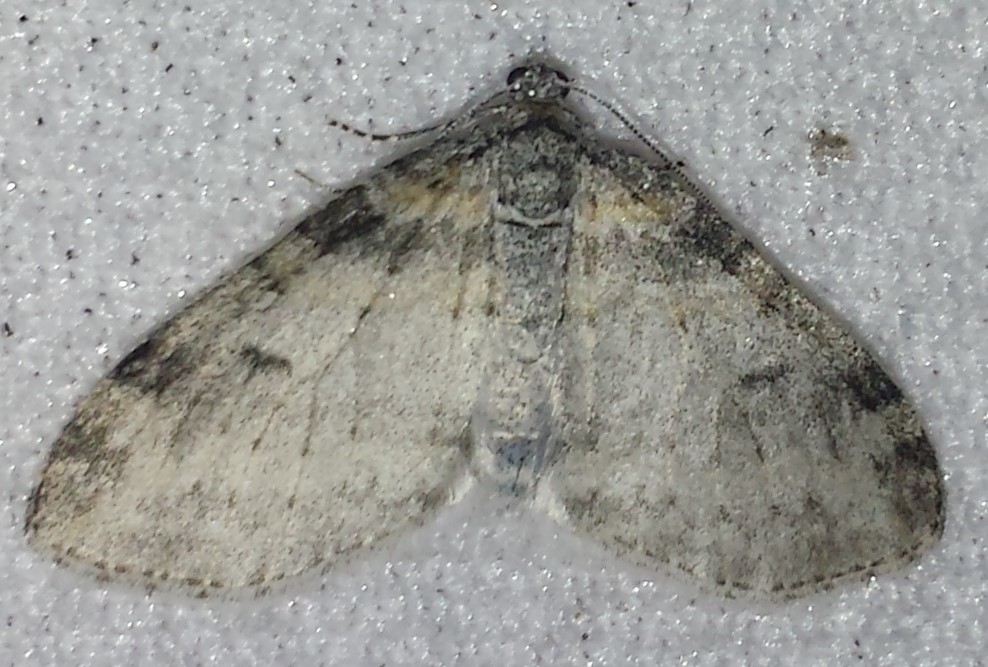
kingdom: Animalia
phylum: Arthropoda
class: Insecta
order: Lepidoptera
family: Geometridae
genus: Lobophora
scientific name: Lobophora nivigerata
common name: Powdered bigwing
